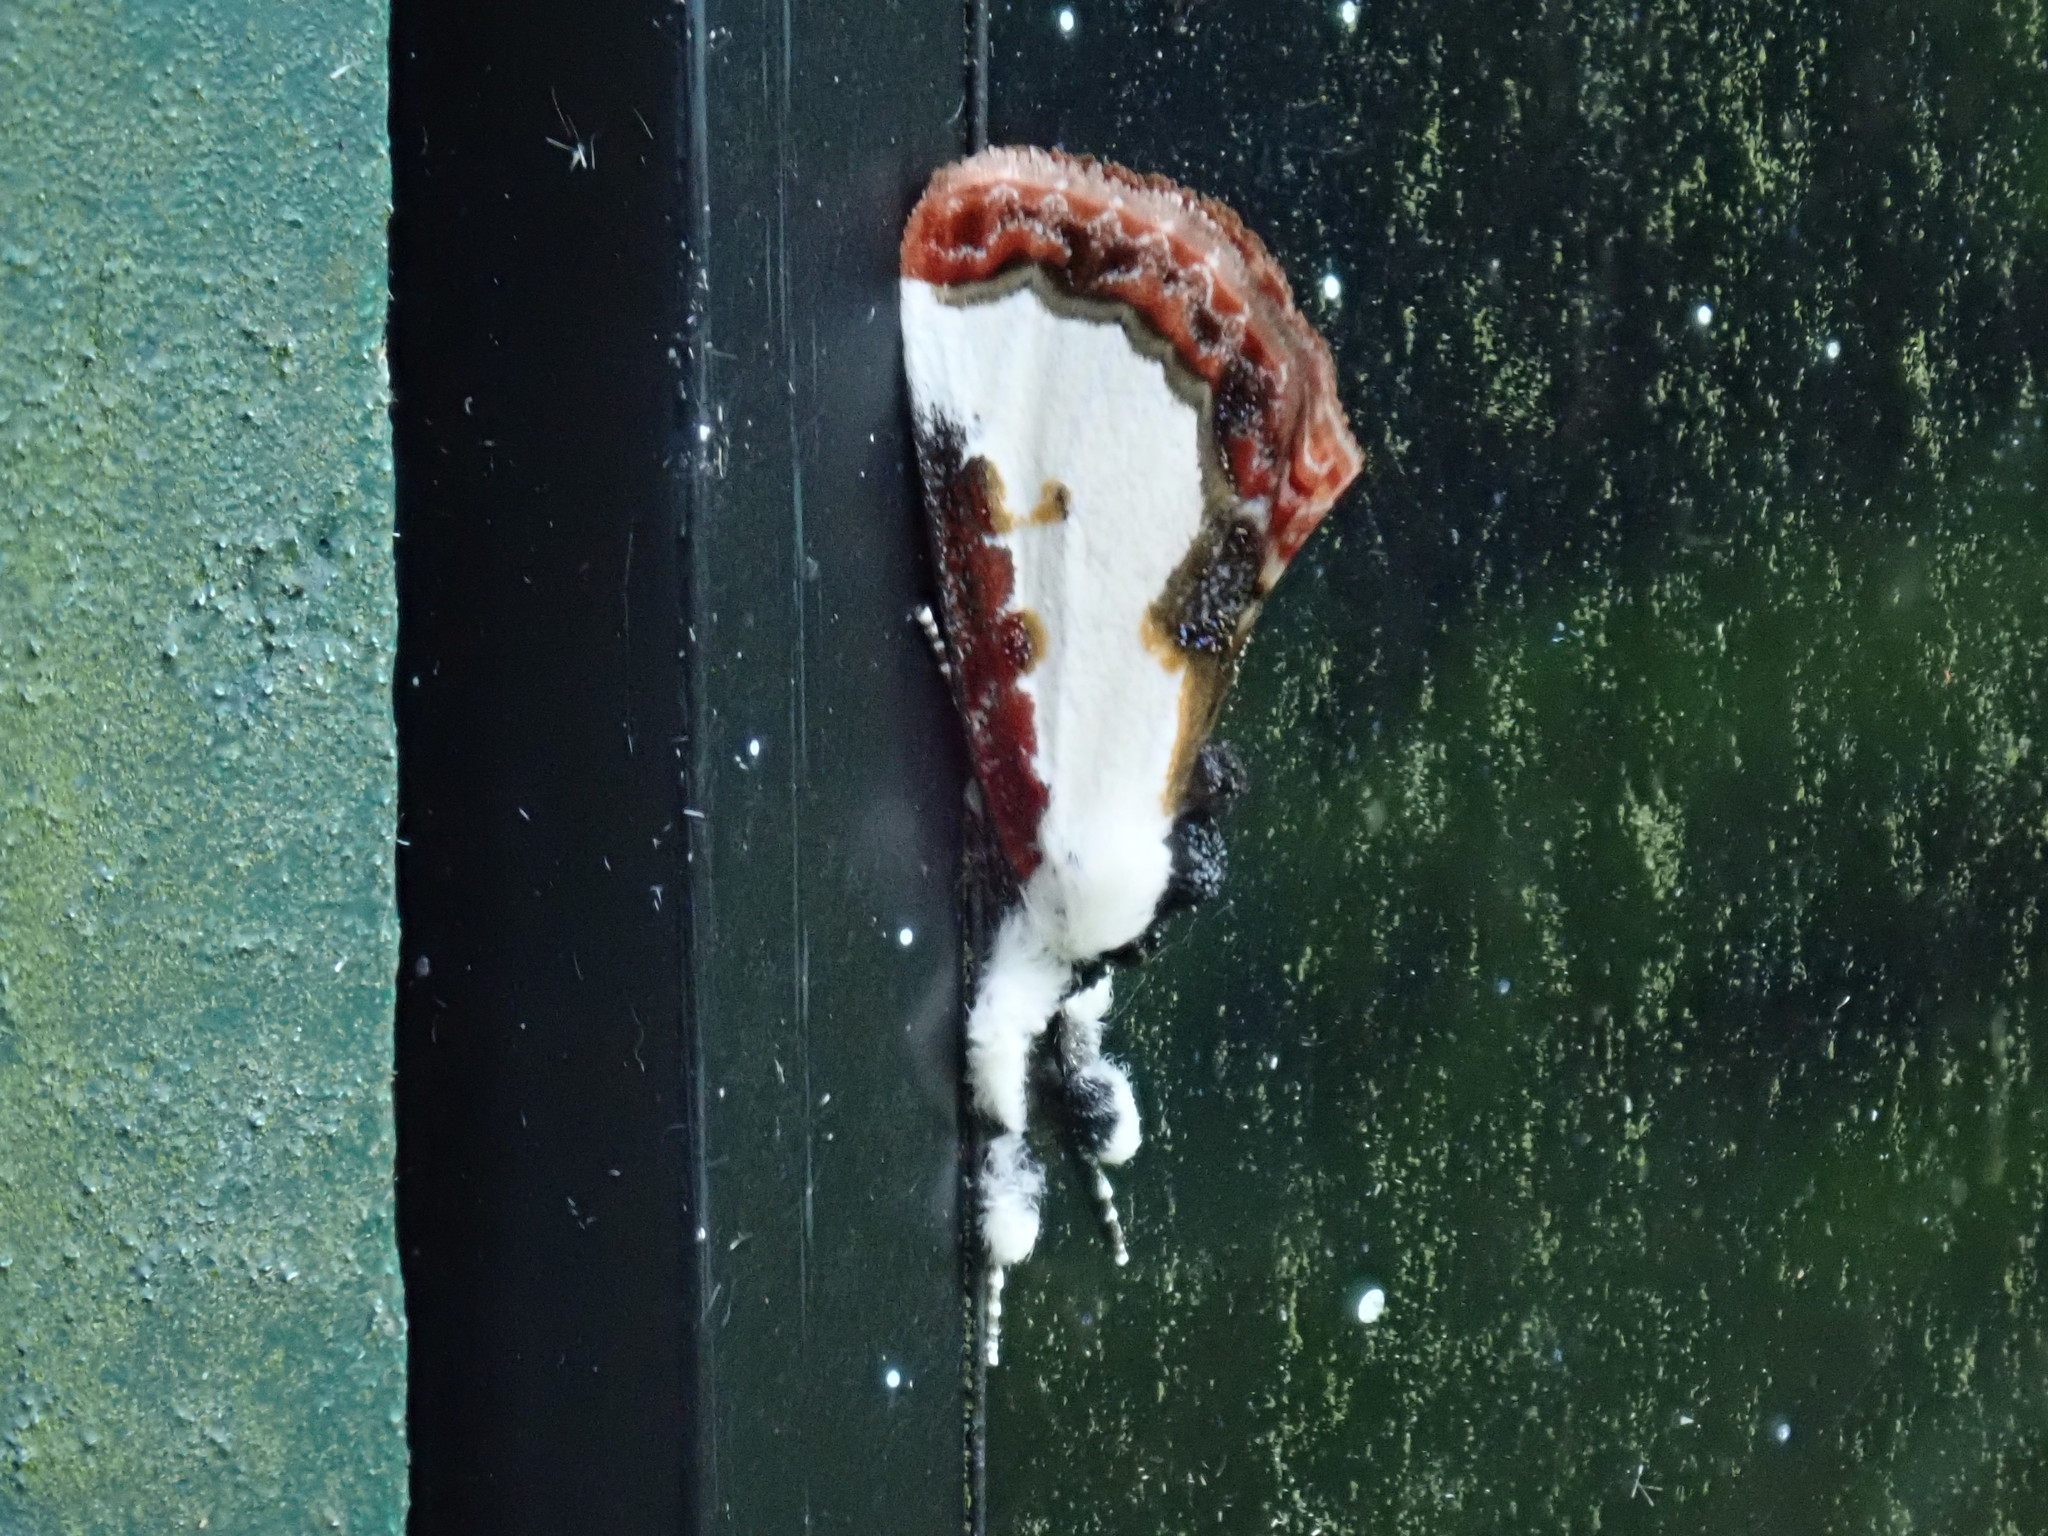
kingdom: Animalia
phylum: Arthropoda
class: Insecta
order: Lepidoptera
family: Noctuidae
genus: Eudryas
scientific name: Eudryas unio
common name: Pearly wood-nymph
